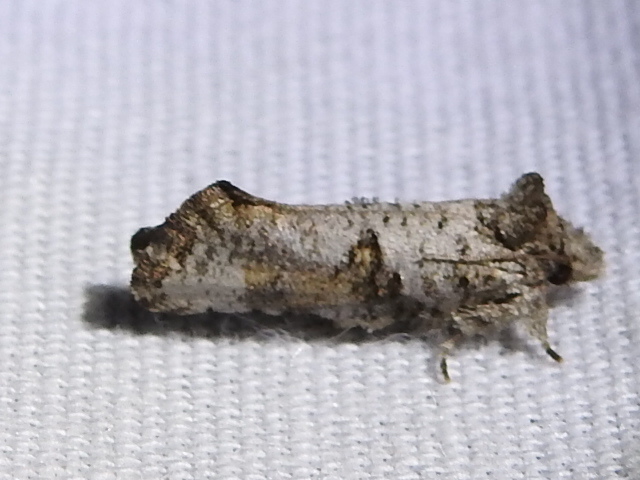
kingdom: Animalia
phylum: Arthropoda
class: Insecta
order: Lepidoptera
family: Tineidae
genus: Acrolophus
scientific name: Acrolophus piger
